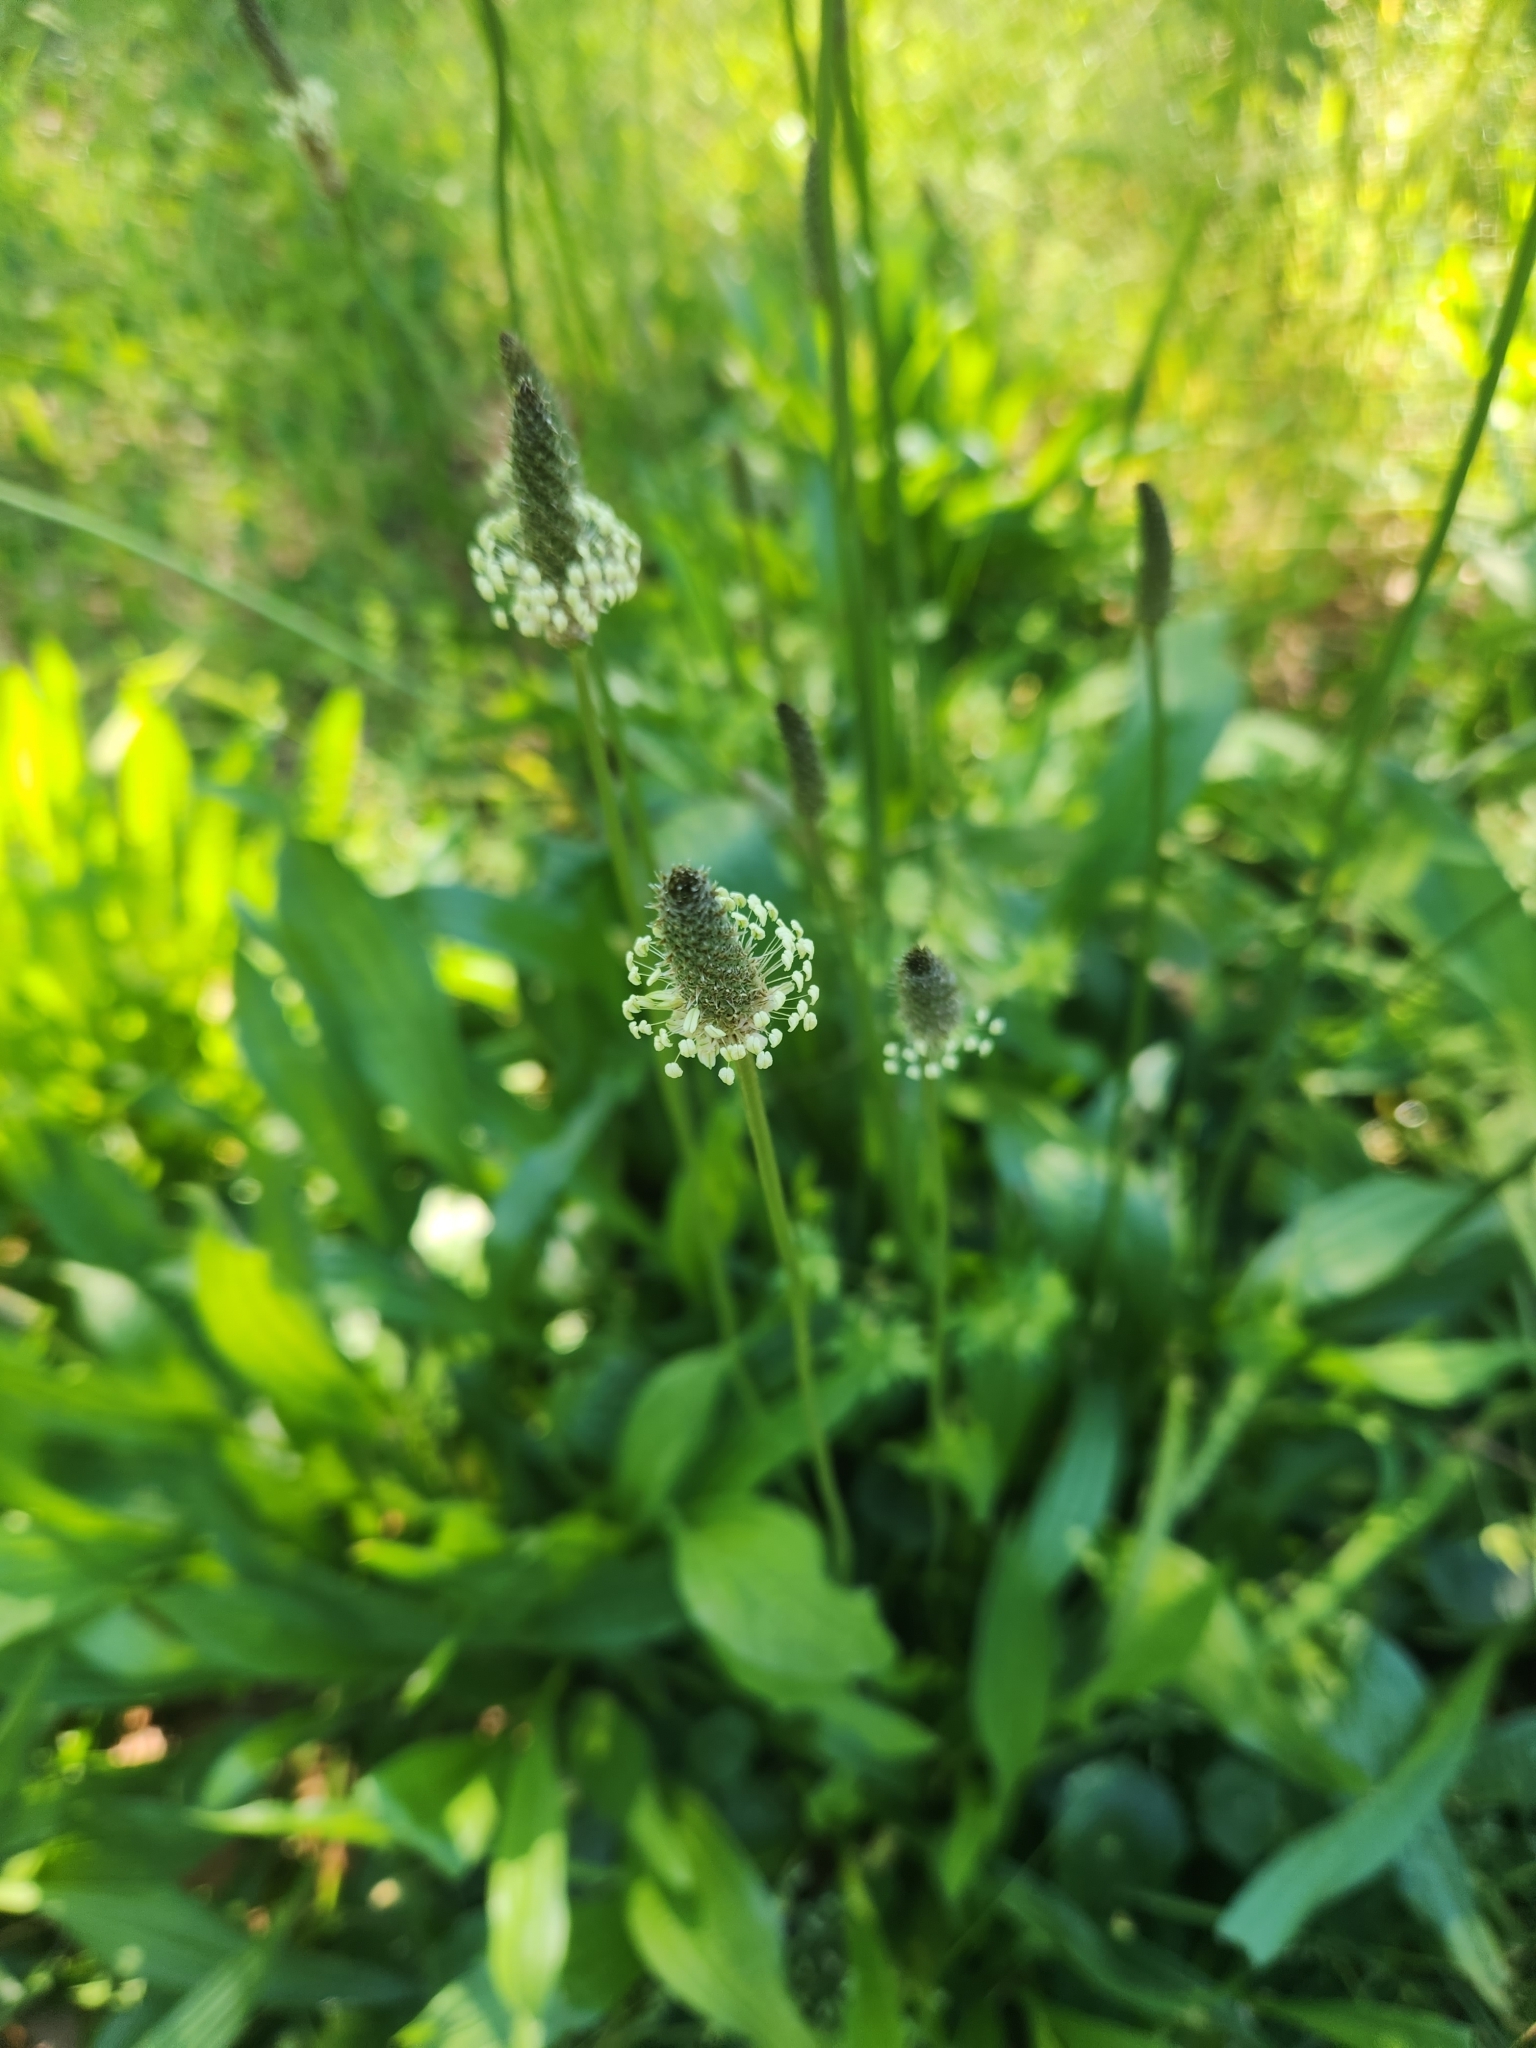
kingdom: Plantae
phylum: Tracheophyta
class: Magnoliopsida
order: Lamiales
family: Plantaginaceae
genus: Plantago
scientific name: Plantago lanceolata
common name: Ribwort plantain
